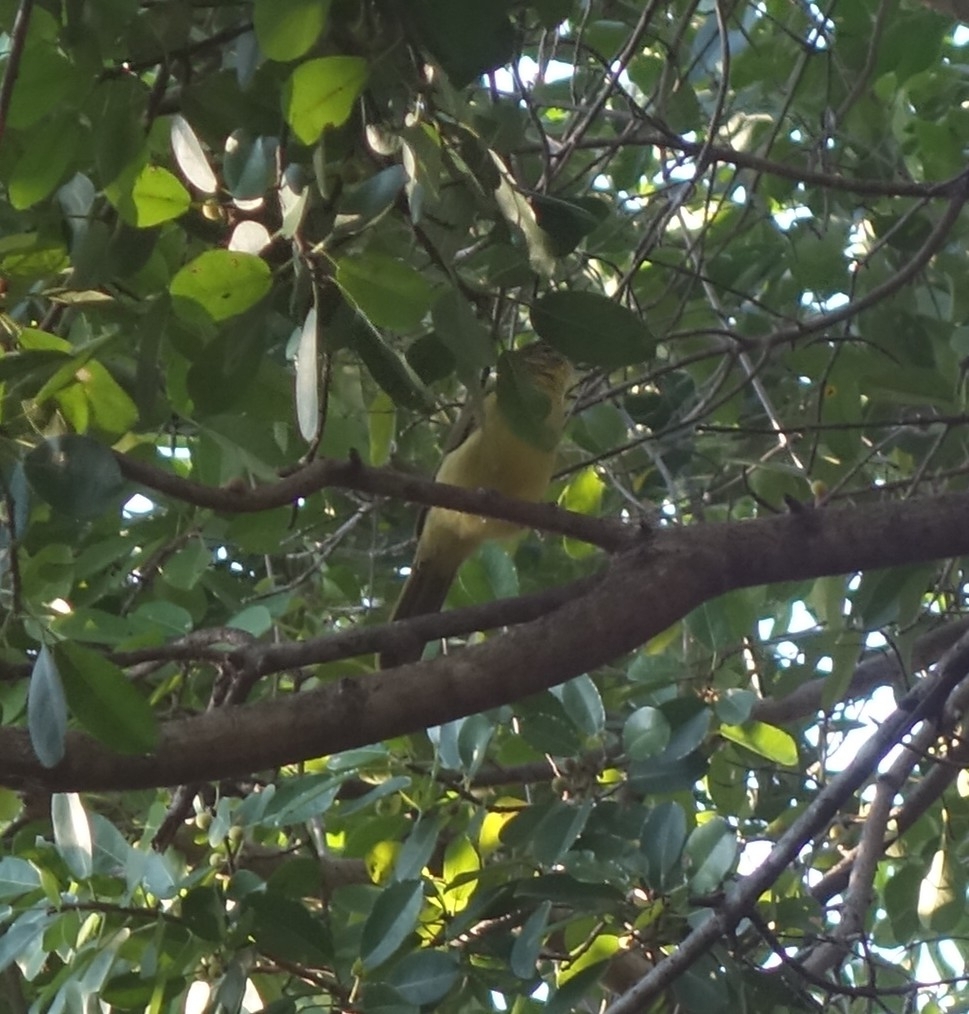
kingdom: Animalia
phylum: Chordata
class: Aves
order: Passeriformes
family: Pycnonotidae
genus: Chlorocichla
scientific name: Chlorocichla flaviventris
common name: Yellow-bellied greenbul
